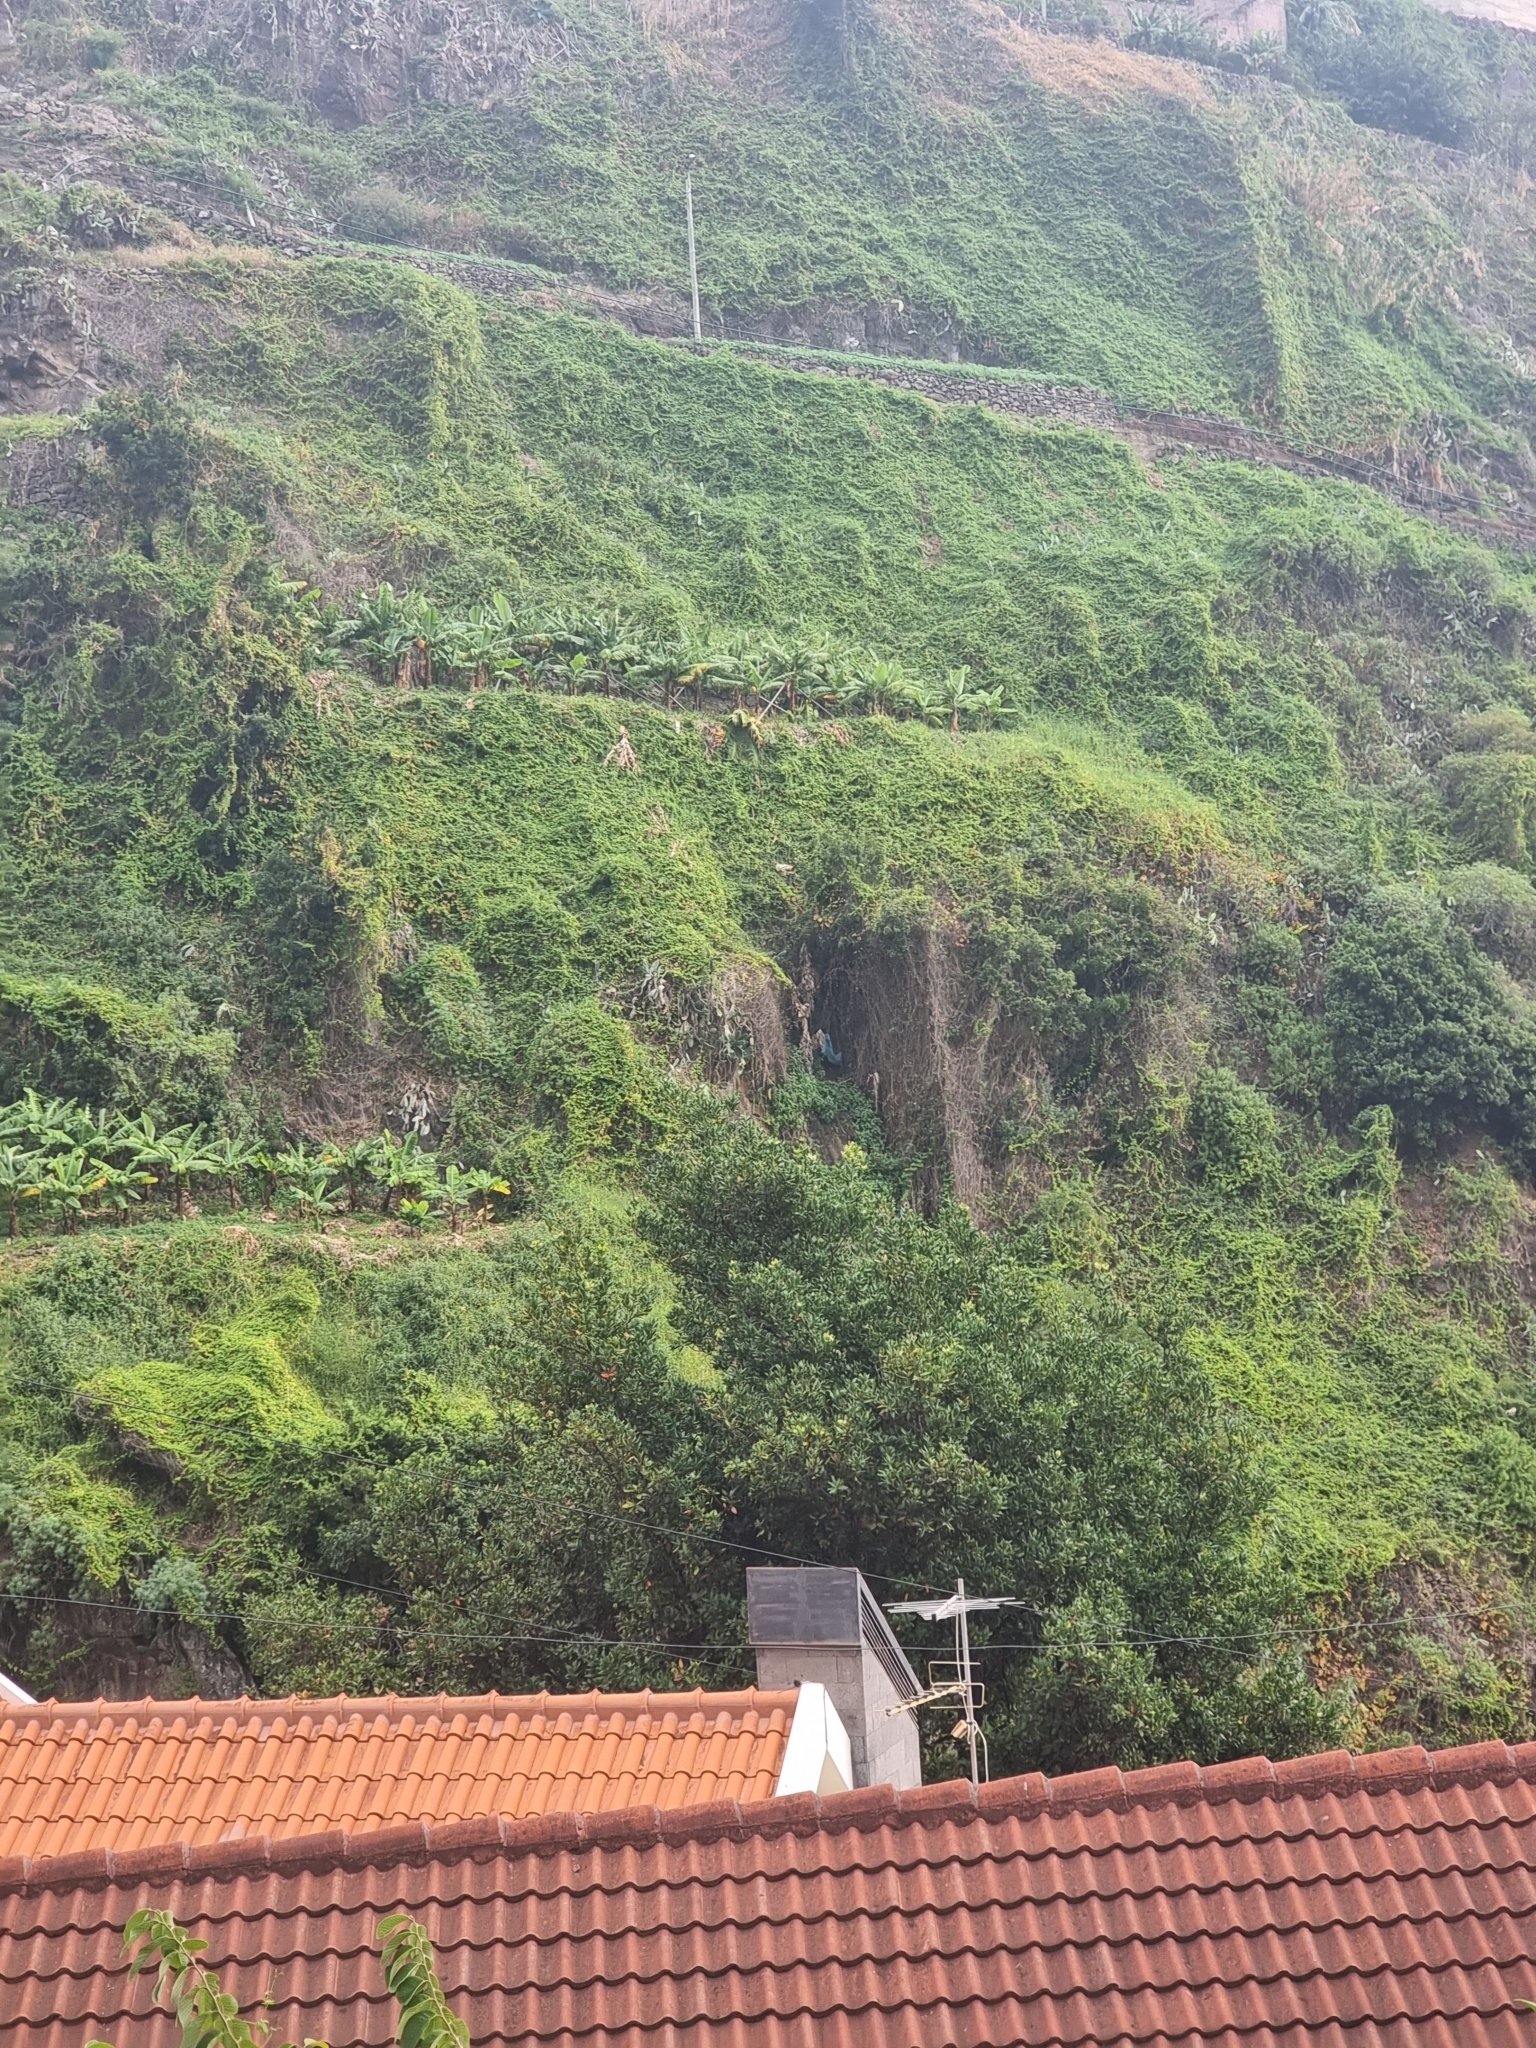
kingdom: Plantae
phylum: Tracheophyta
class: Magnoliopsida
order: Sapindales
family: Sapindaceae
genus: Cardiospermum
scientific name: Cardiospermum grandiflorum
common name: Balloon vine
